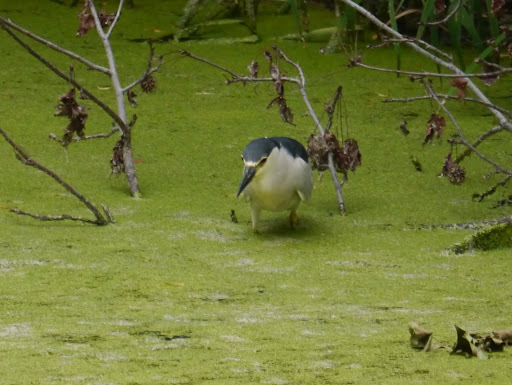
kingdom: Animalia
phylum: Chordata
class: Aves
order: Pelecaniformes
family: Ardeidae
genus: Nycticorax
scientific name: Nycticorax nycticorax
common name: Black-crowned night heron
